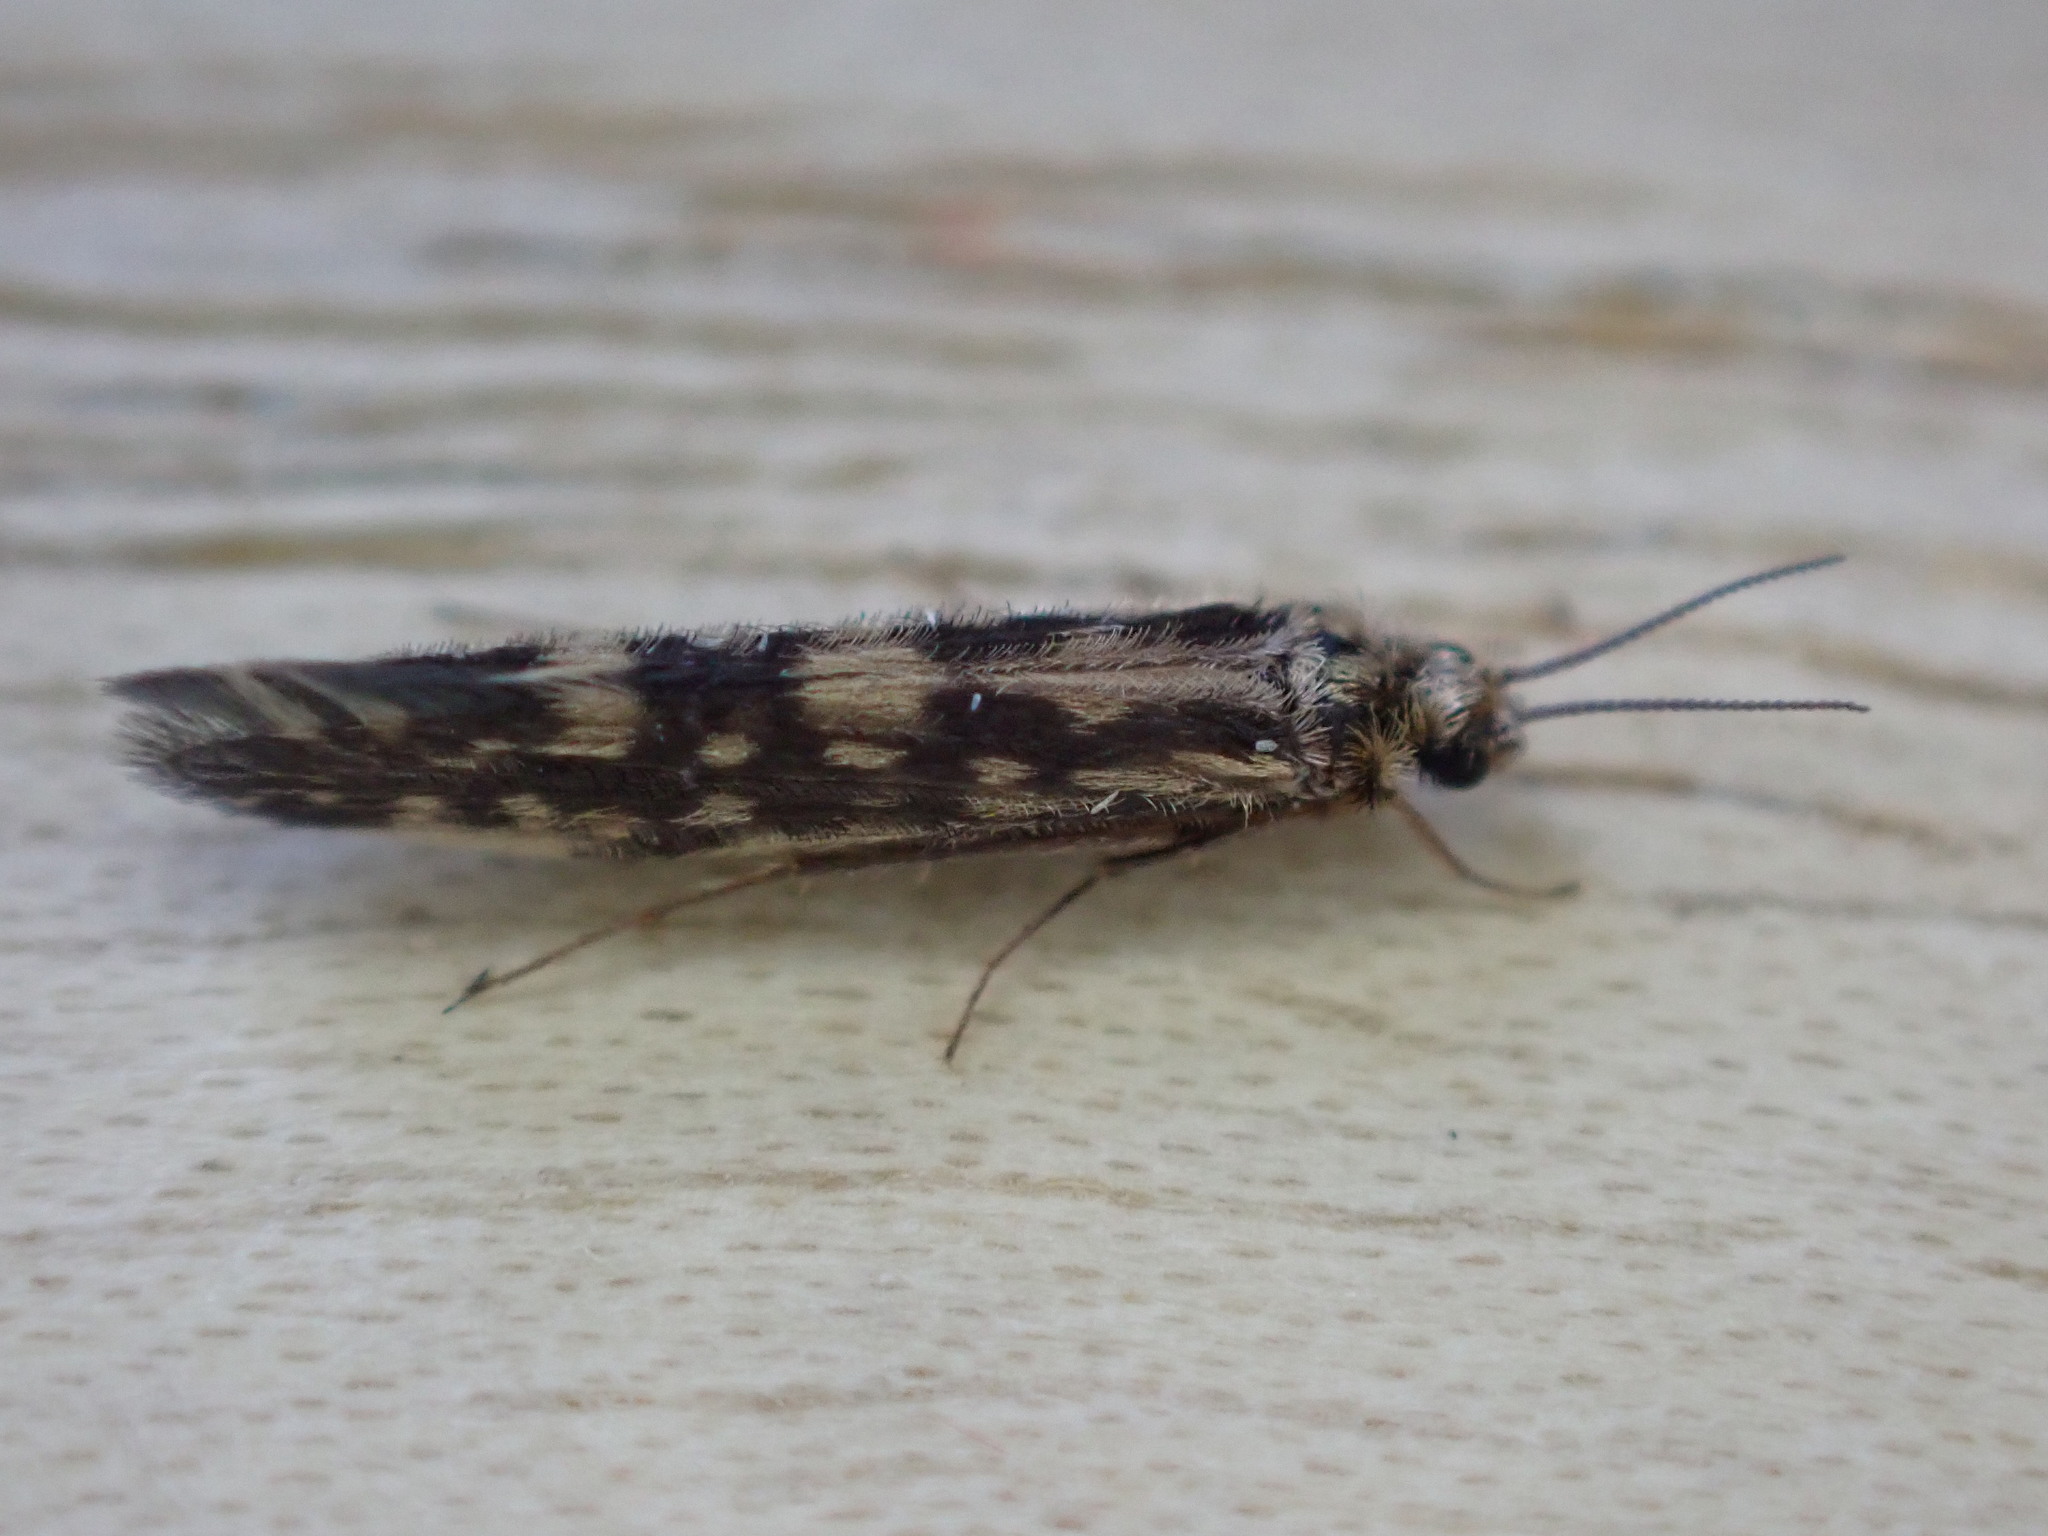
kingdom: Animalia
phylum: Arthropoda
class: Insecta
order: Trichoptera
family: Hydroptilidae
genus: Agraylea
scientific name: Agraylea multipunctata
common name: Salt and pepper microcaddisfly
